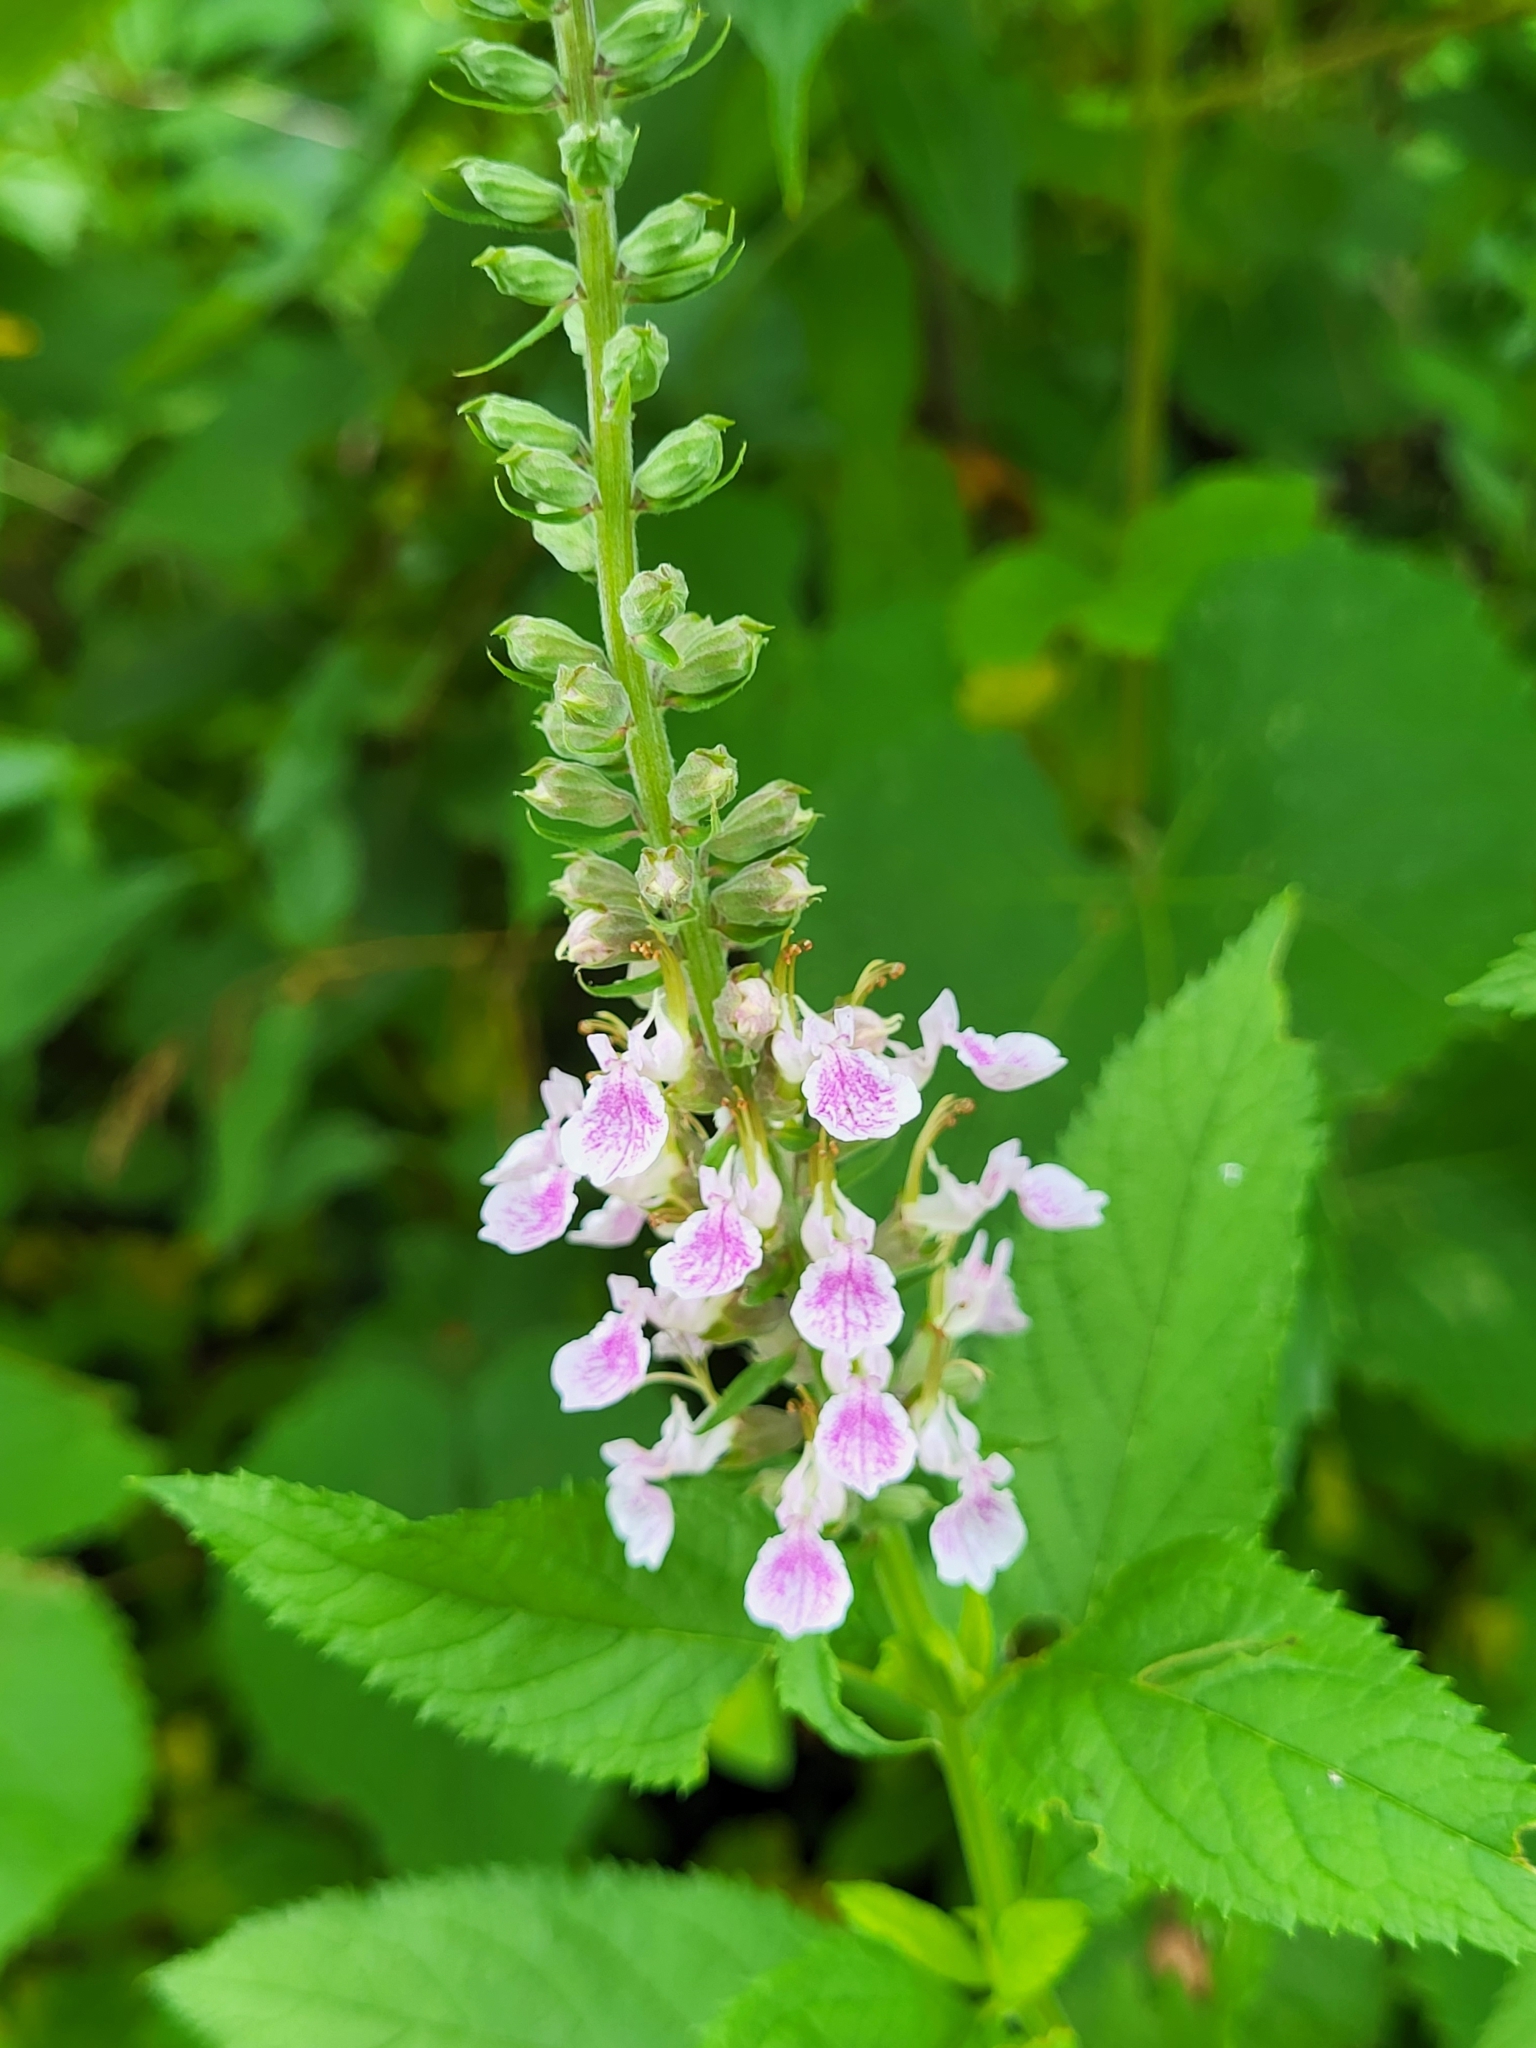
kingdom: Plantae
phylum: Tracheophyta
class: Magnoliopsida
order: Lamiales
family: Lamiaceae
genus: Teucrium
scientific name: Teucrium canadense
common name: American germander
